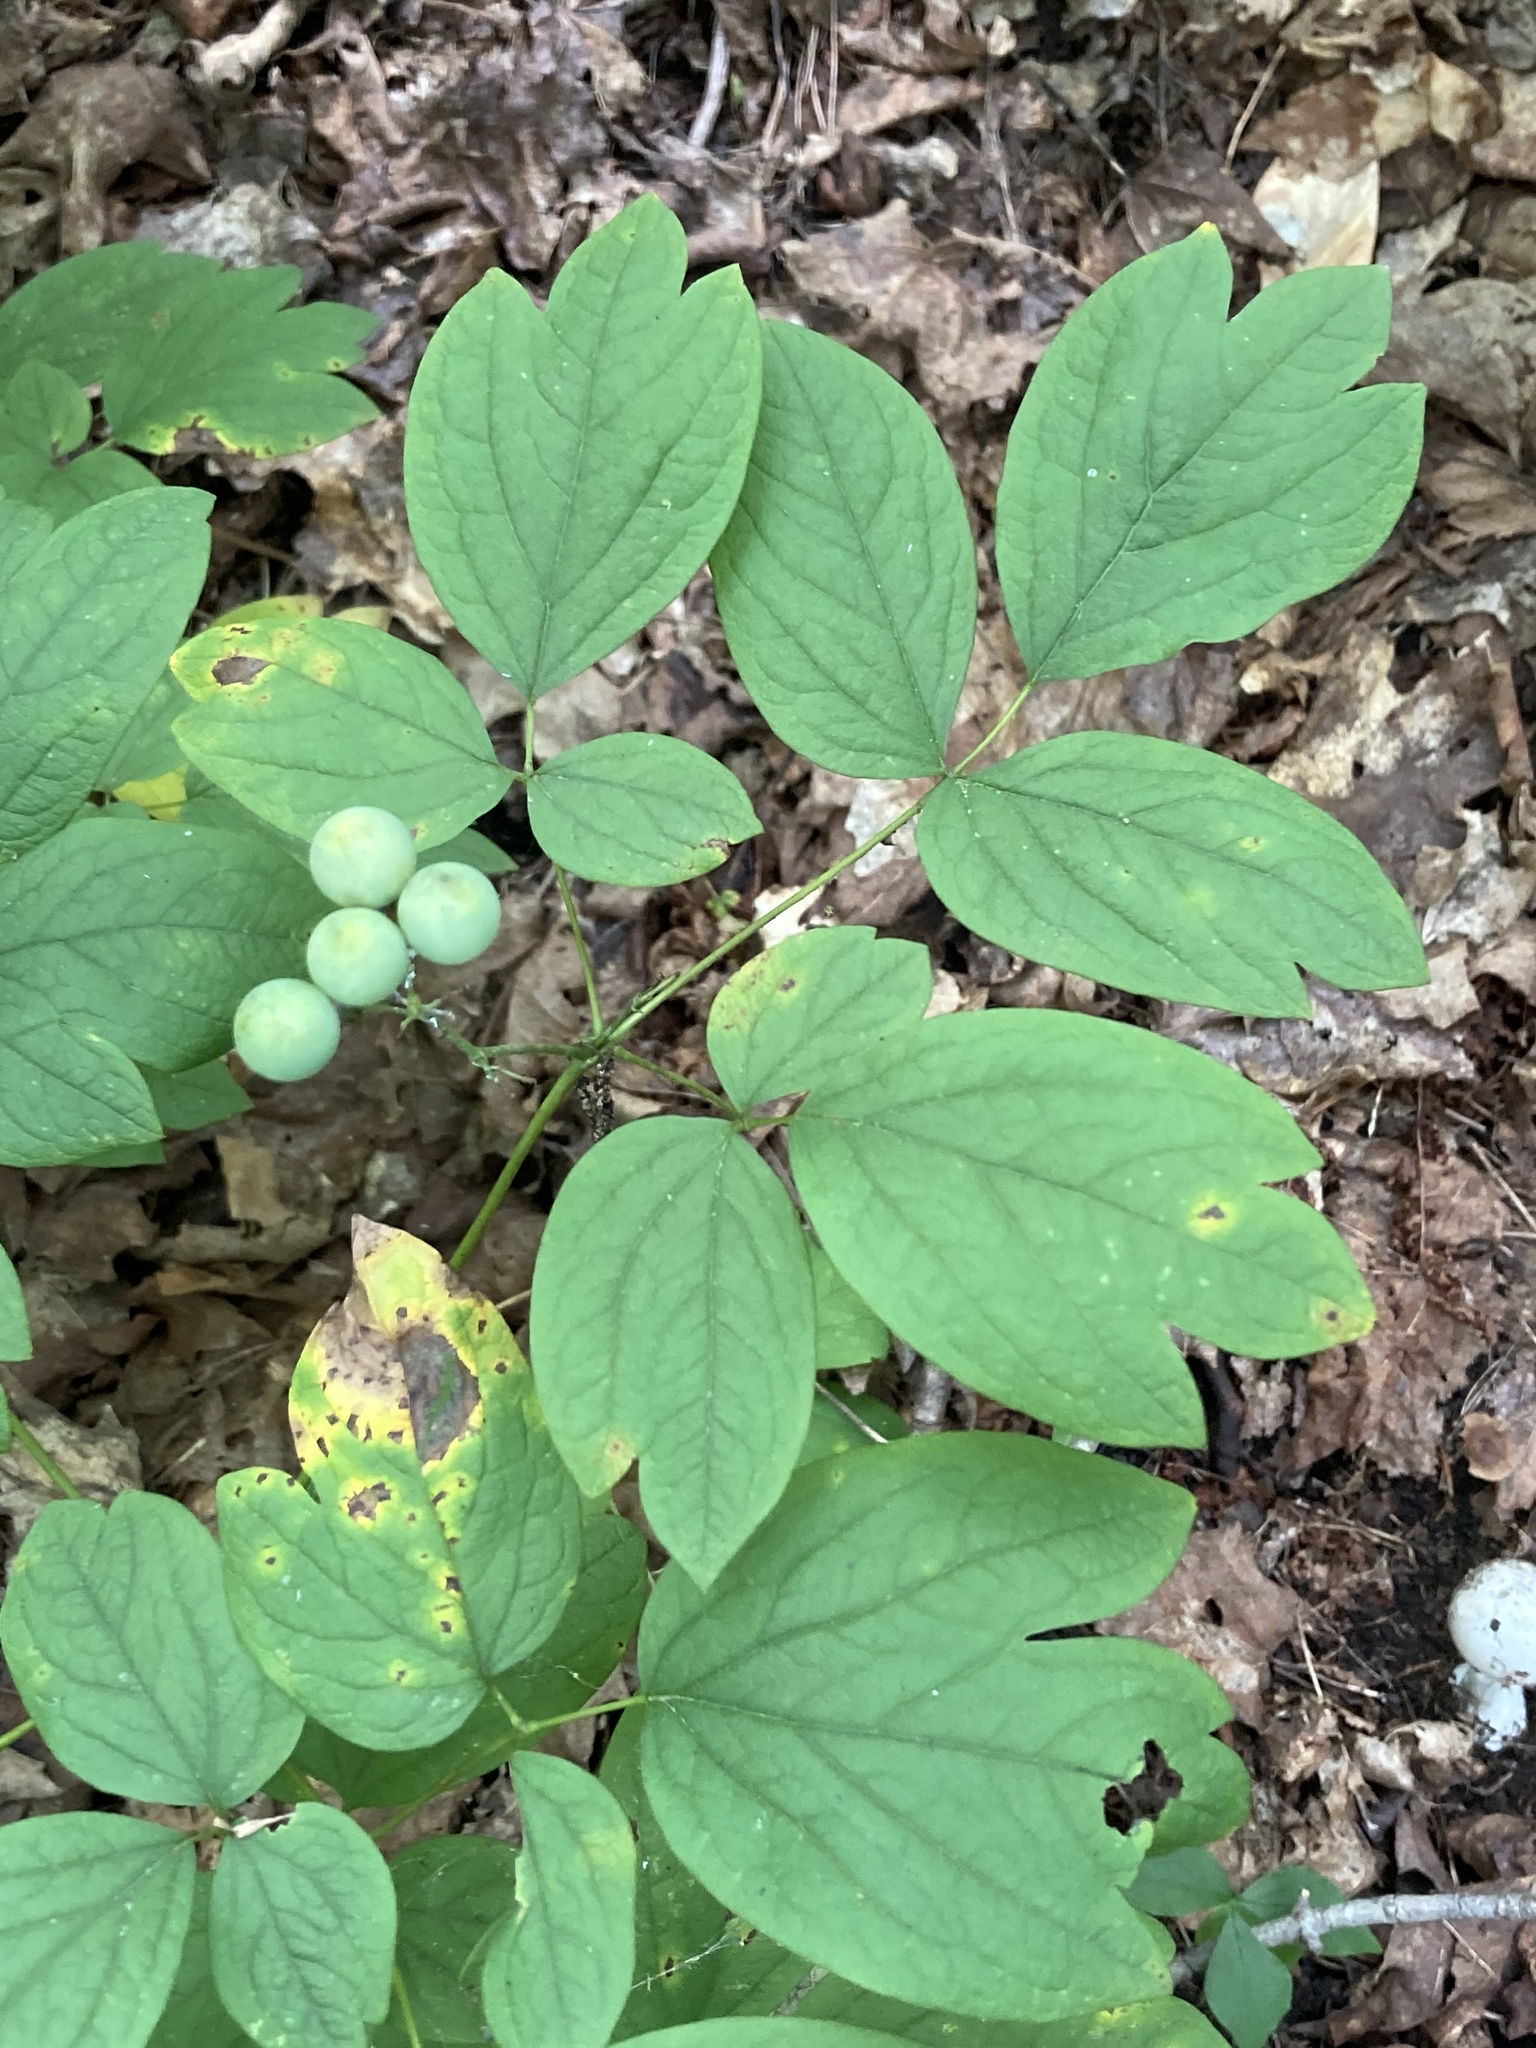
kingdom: Plantae
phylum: Tracheophyta
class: Magnoliopsida
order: Ranunculales
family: Berberidaceae
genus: Caulophyllum
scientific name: Caulophyllum thalictroides
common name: Blue cohosh
